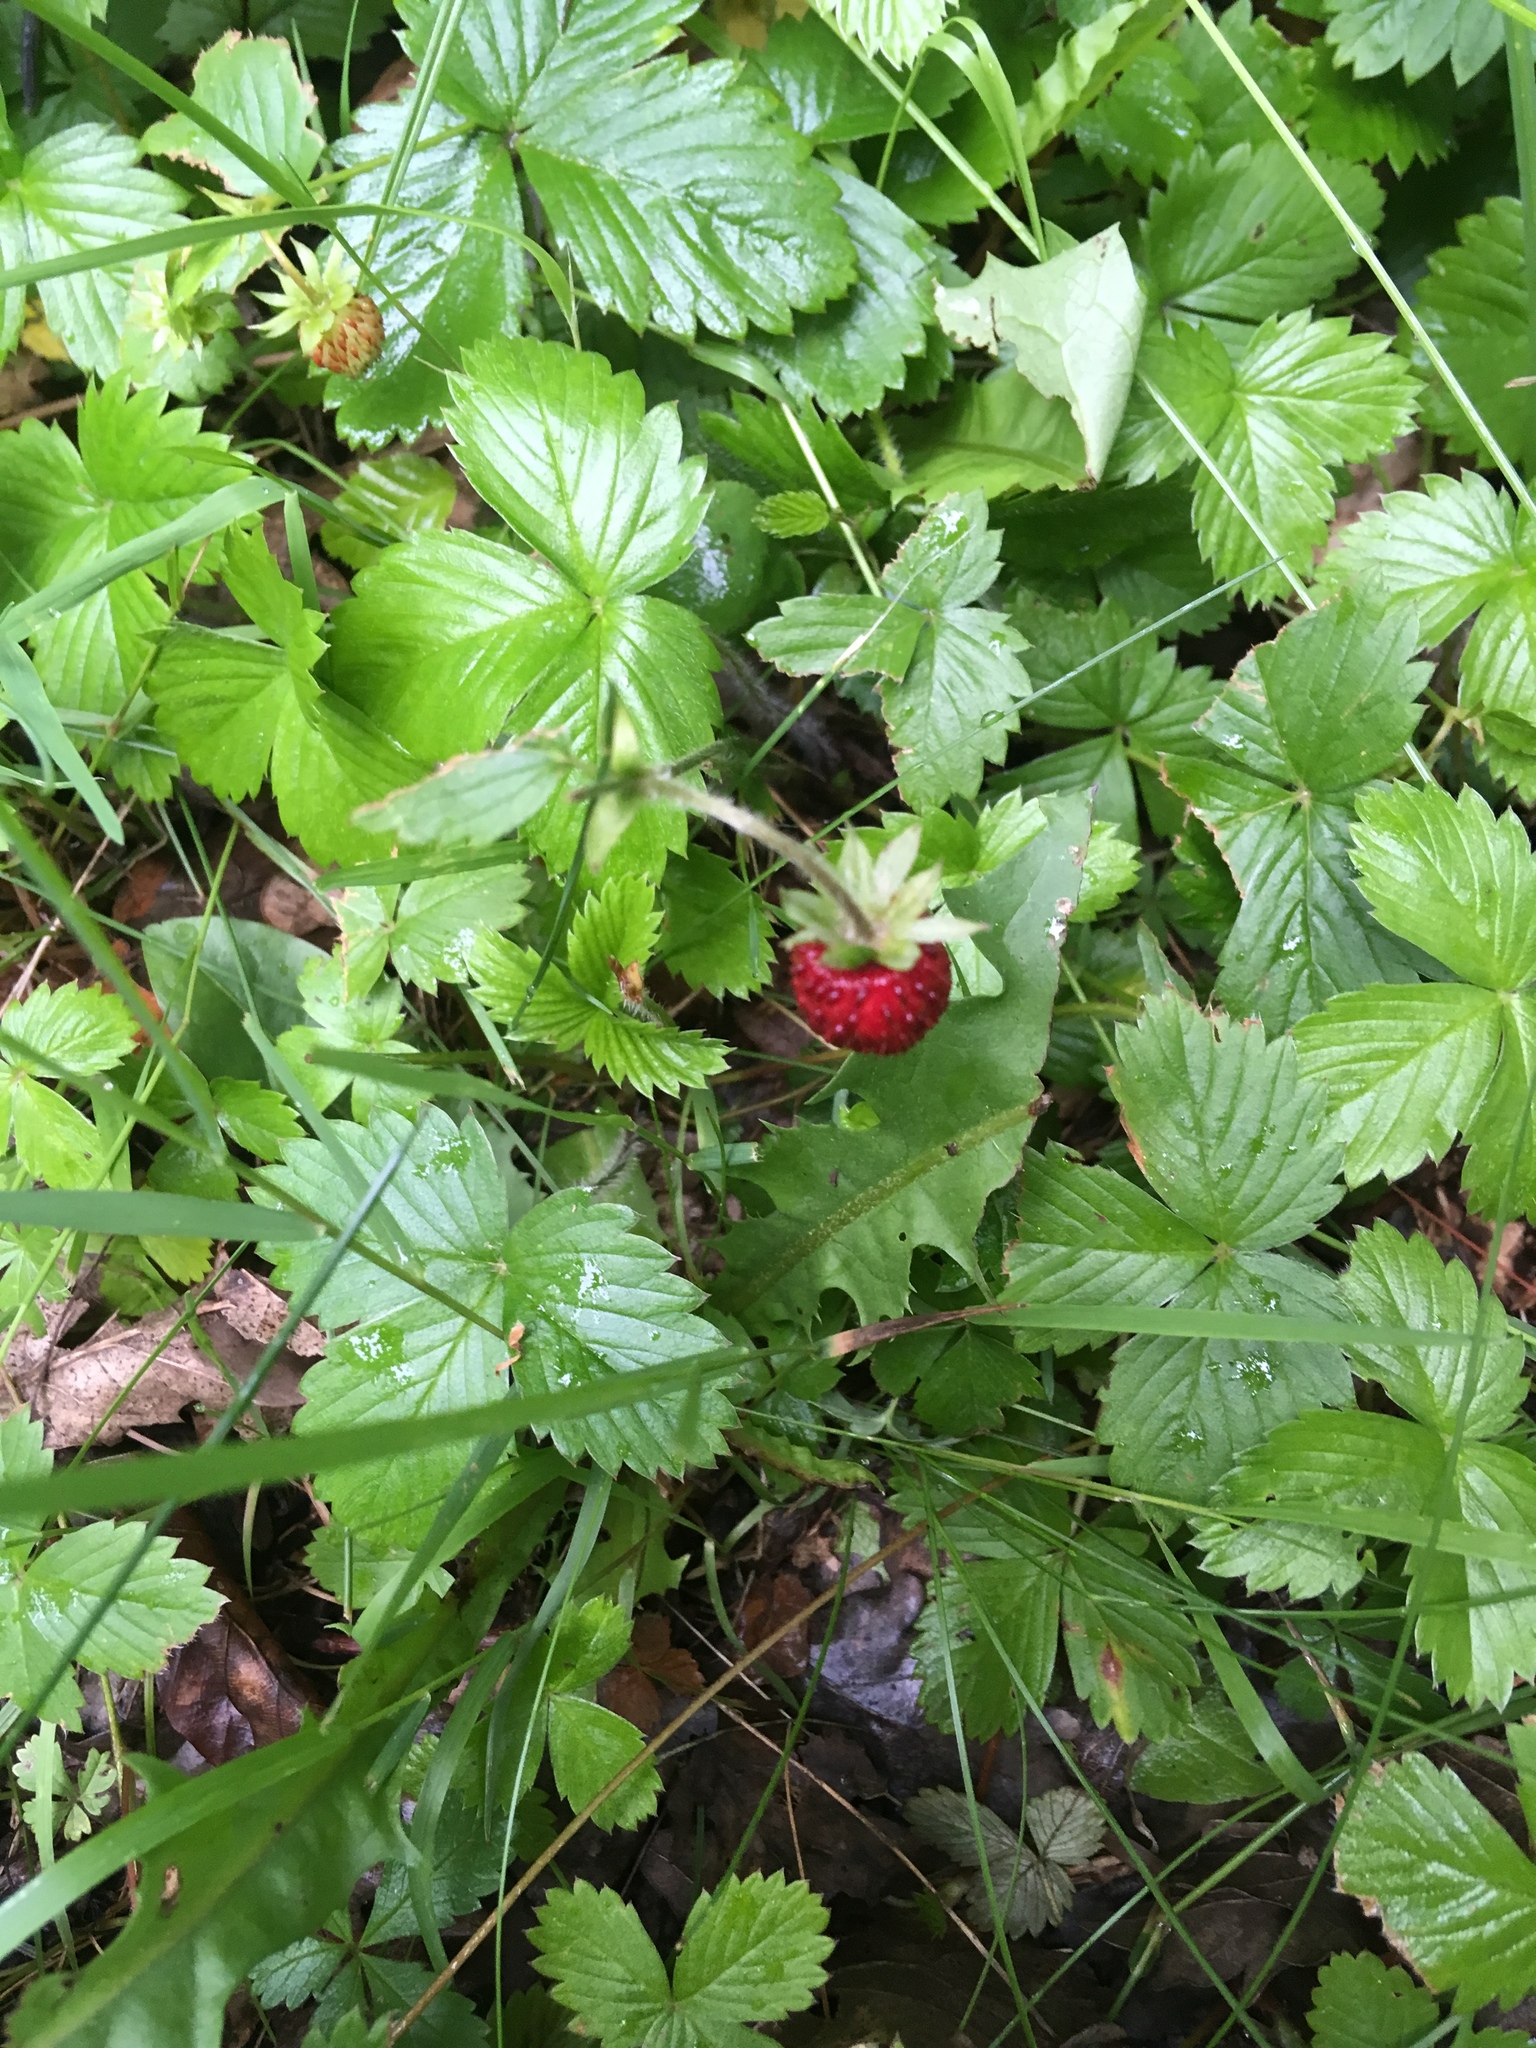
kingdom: Plantae
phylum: Tracheophyta
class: Magnoliopsida
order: Rosales
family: Rosaceae
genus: Fragaria
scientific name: Fragaria vesca
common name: Wild strawberry
